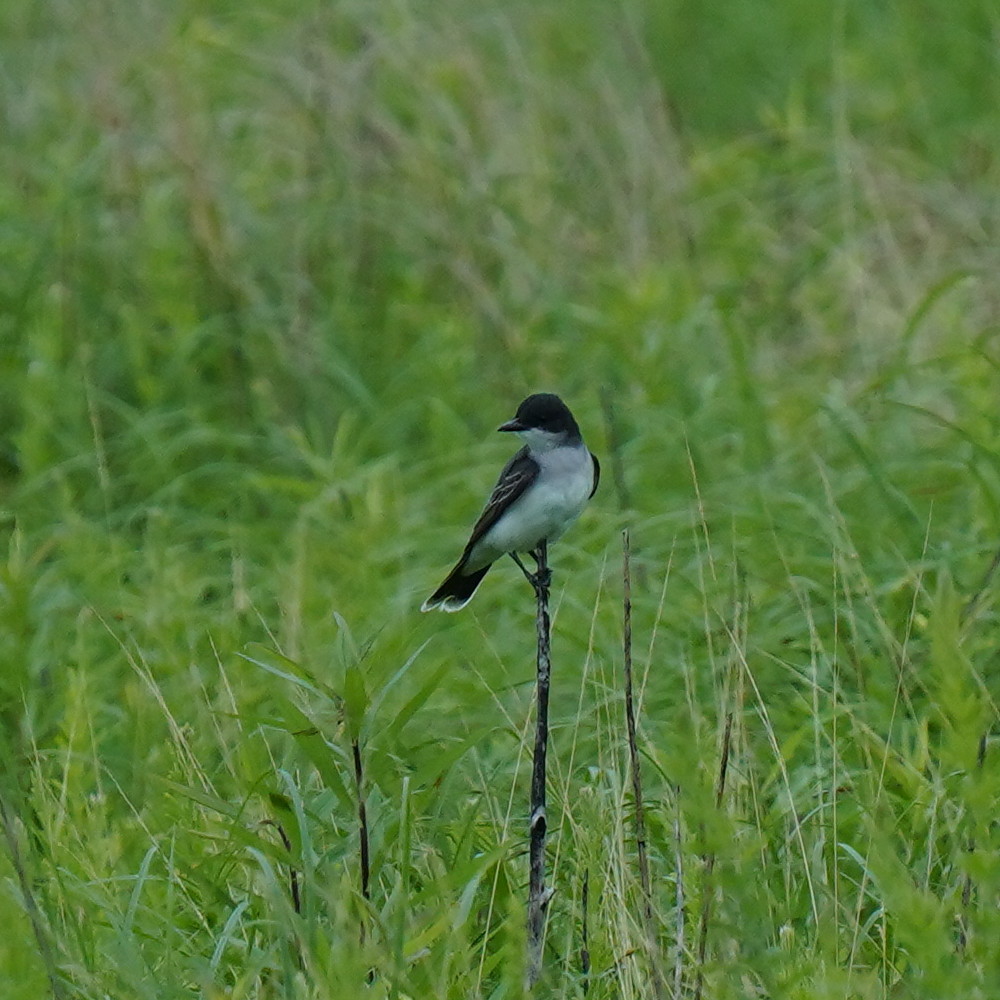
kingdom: Animalia
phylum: Chordata
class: Aves
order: Passeriformes
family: Tyrannidae
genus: Tyrannus
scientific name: Tyrannus tyrannus
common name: Eastern kingbird
